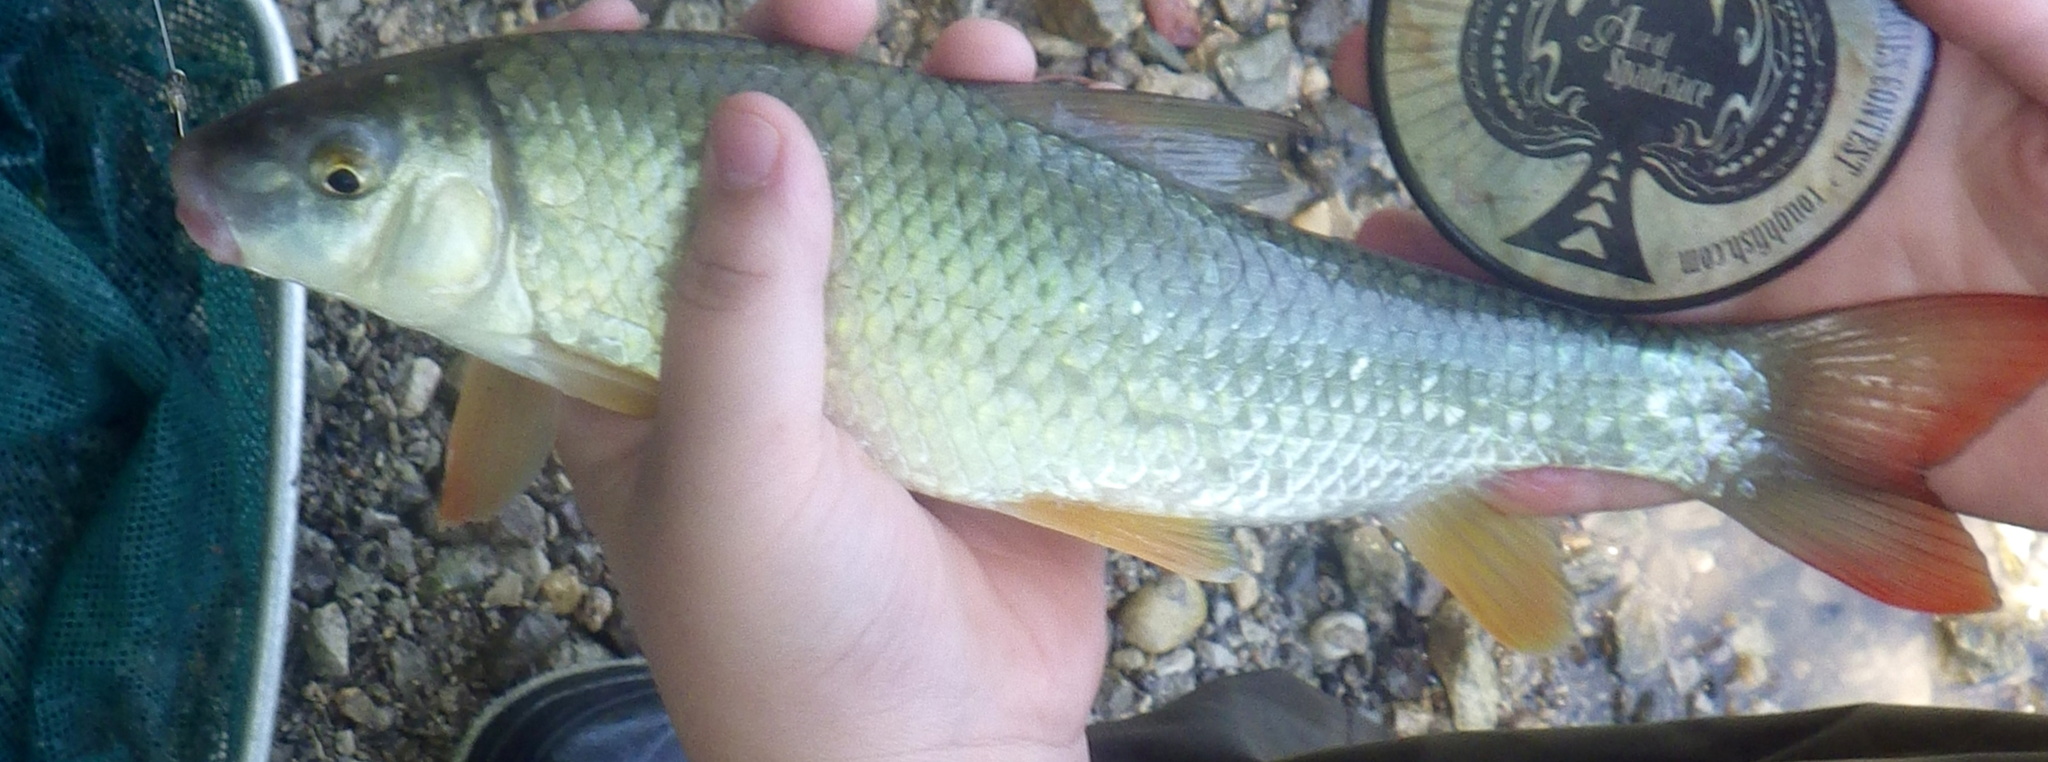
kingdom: Animalia
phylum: Chordata
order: Cypriniformes
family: Catostomidae
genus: Moxostoma
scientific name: Moxostoma macrolepidotum
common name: Shorthead redhorse
